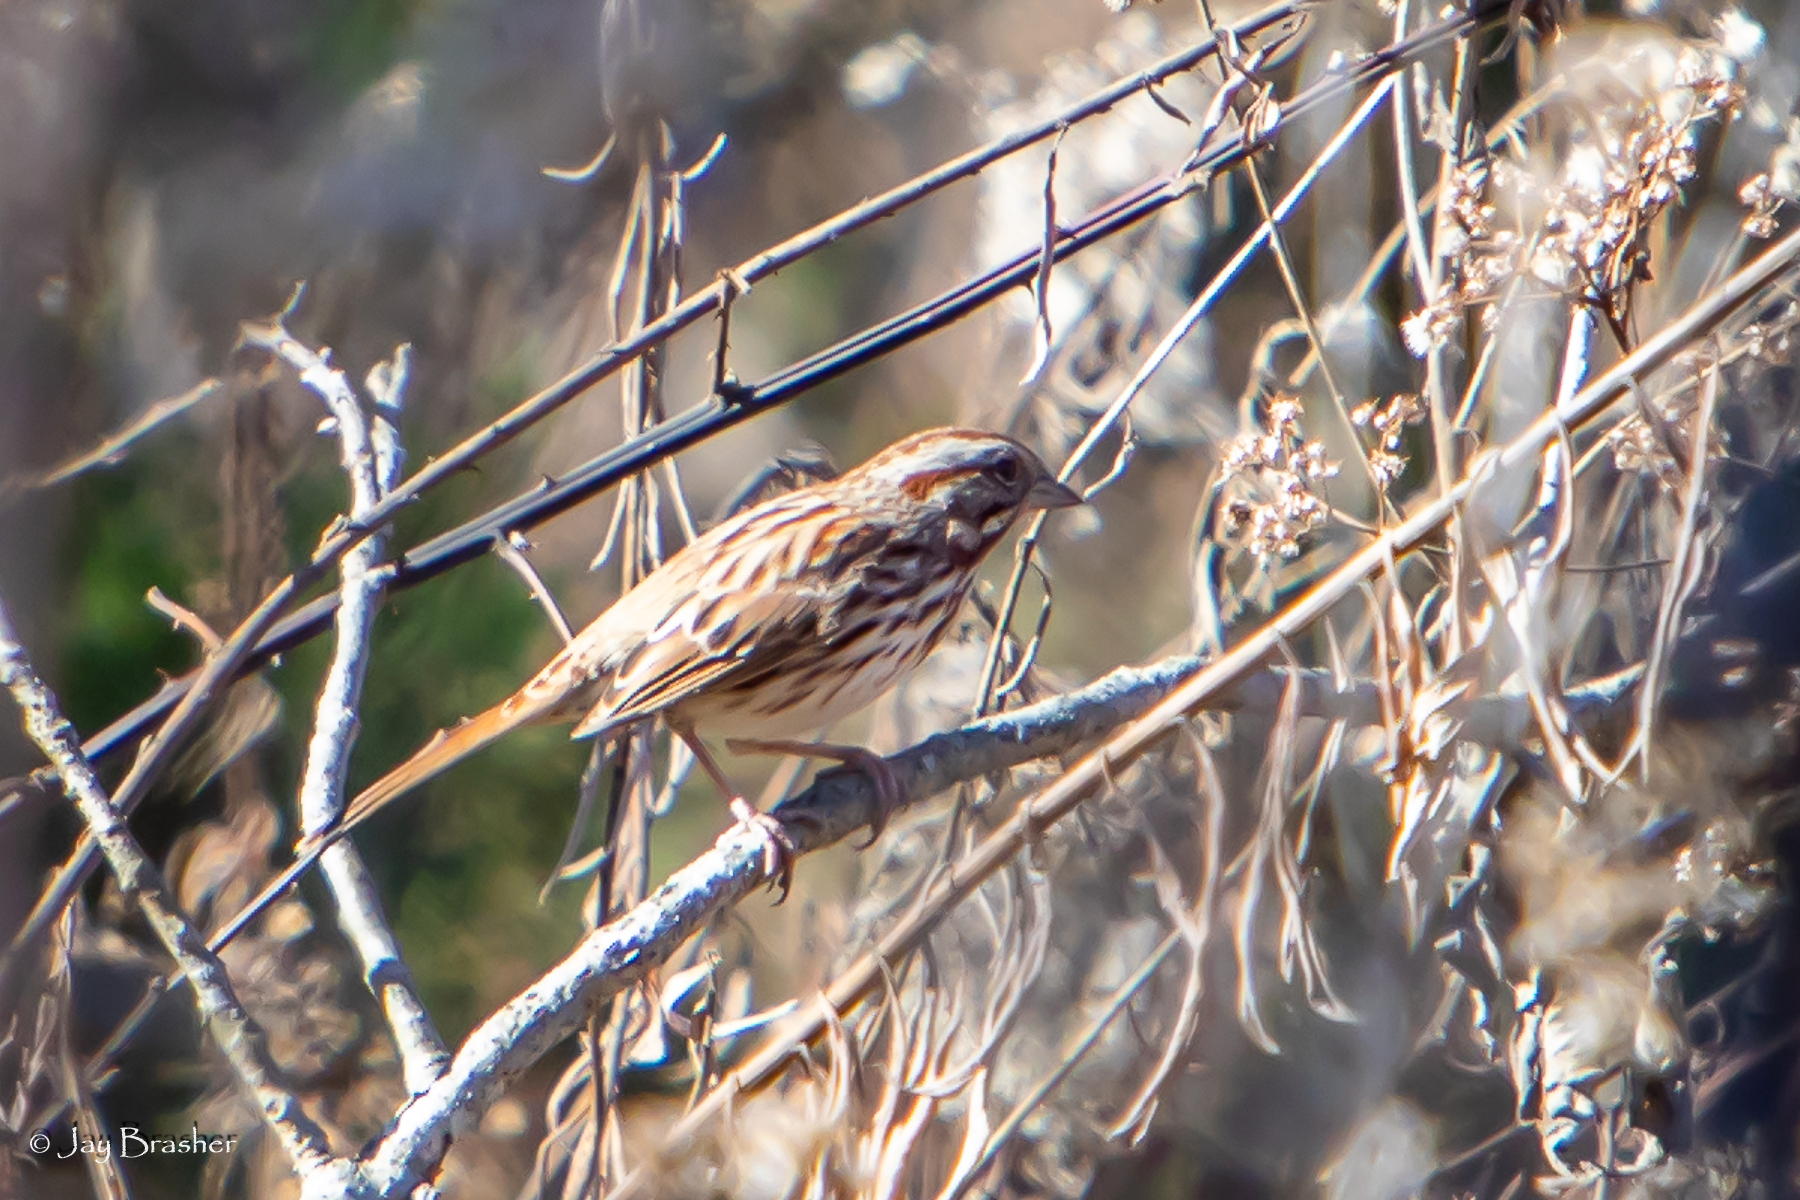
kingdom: Animalia
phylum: Chordata
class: Aves
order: Passeriformes
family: Passerellidae
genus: Melospiza
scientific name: Melospiza melodia
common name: Song sparrow
